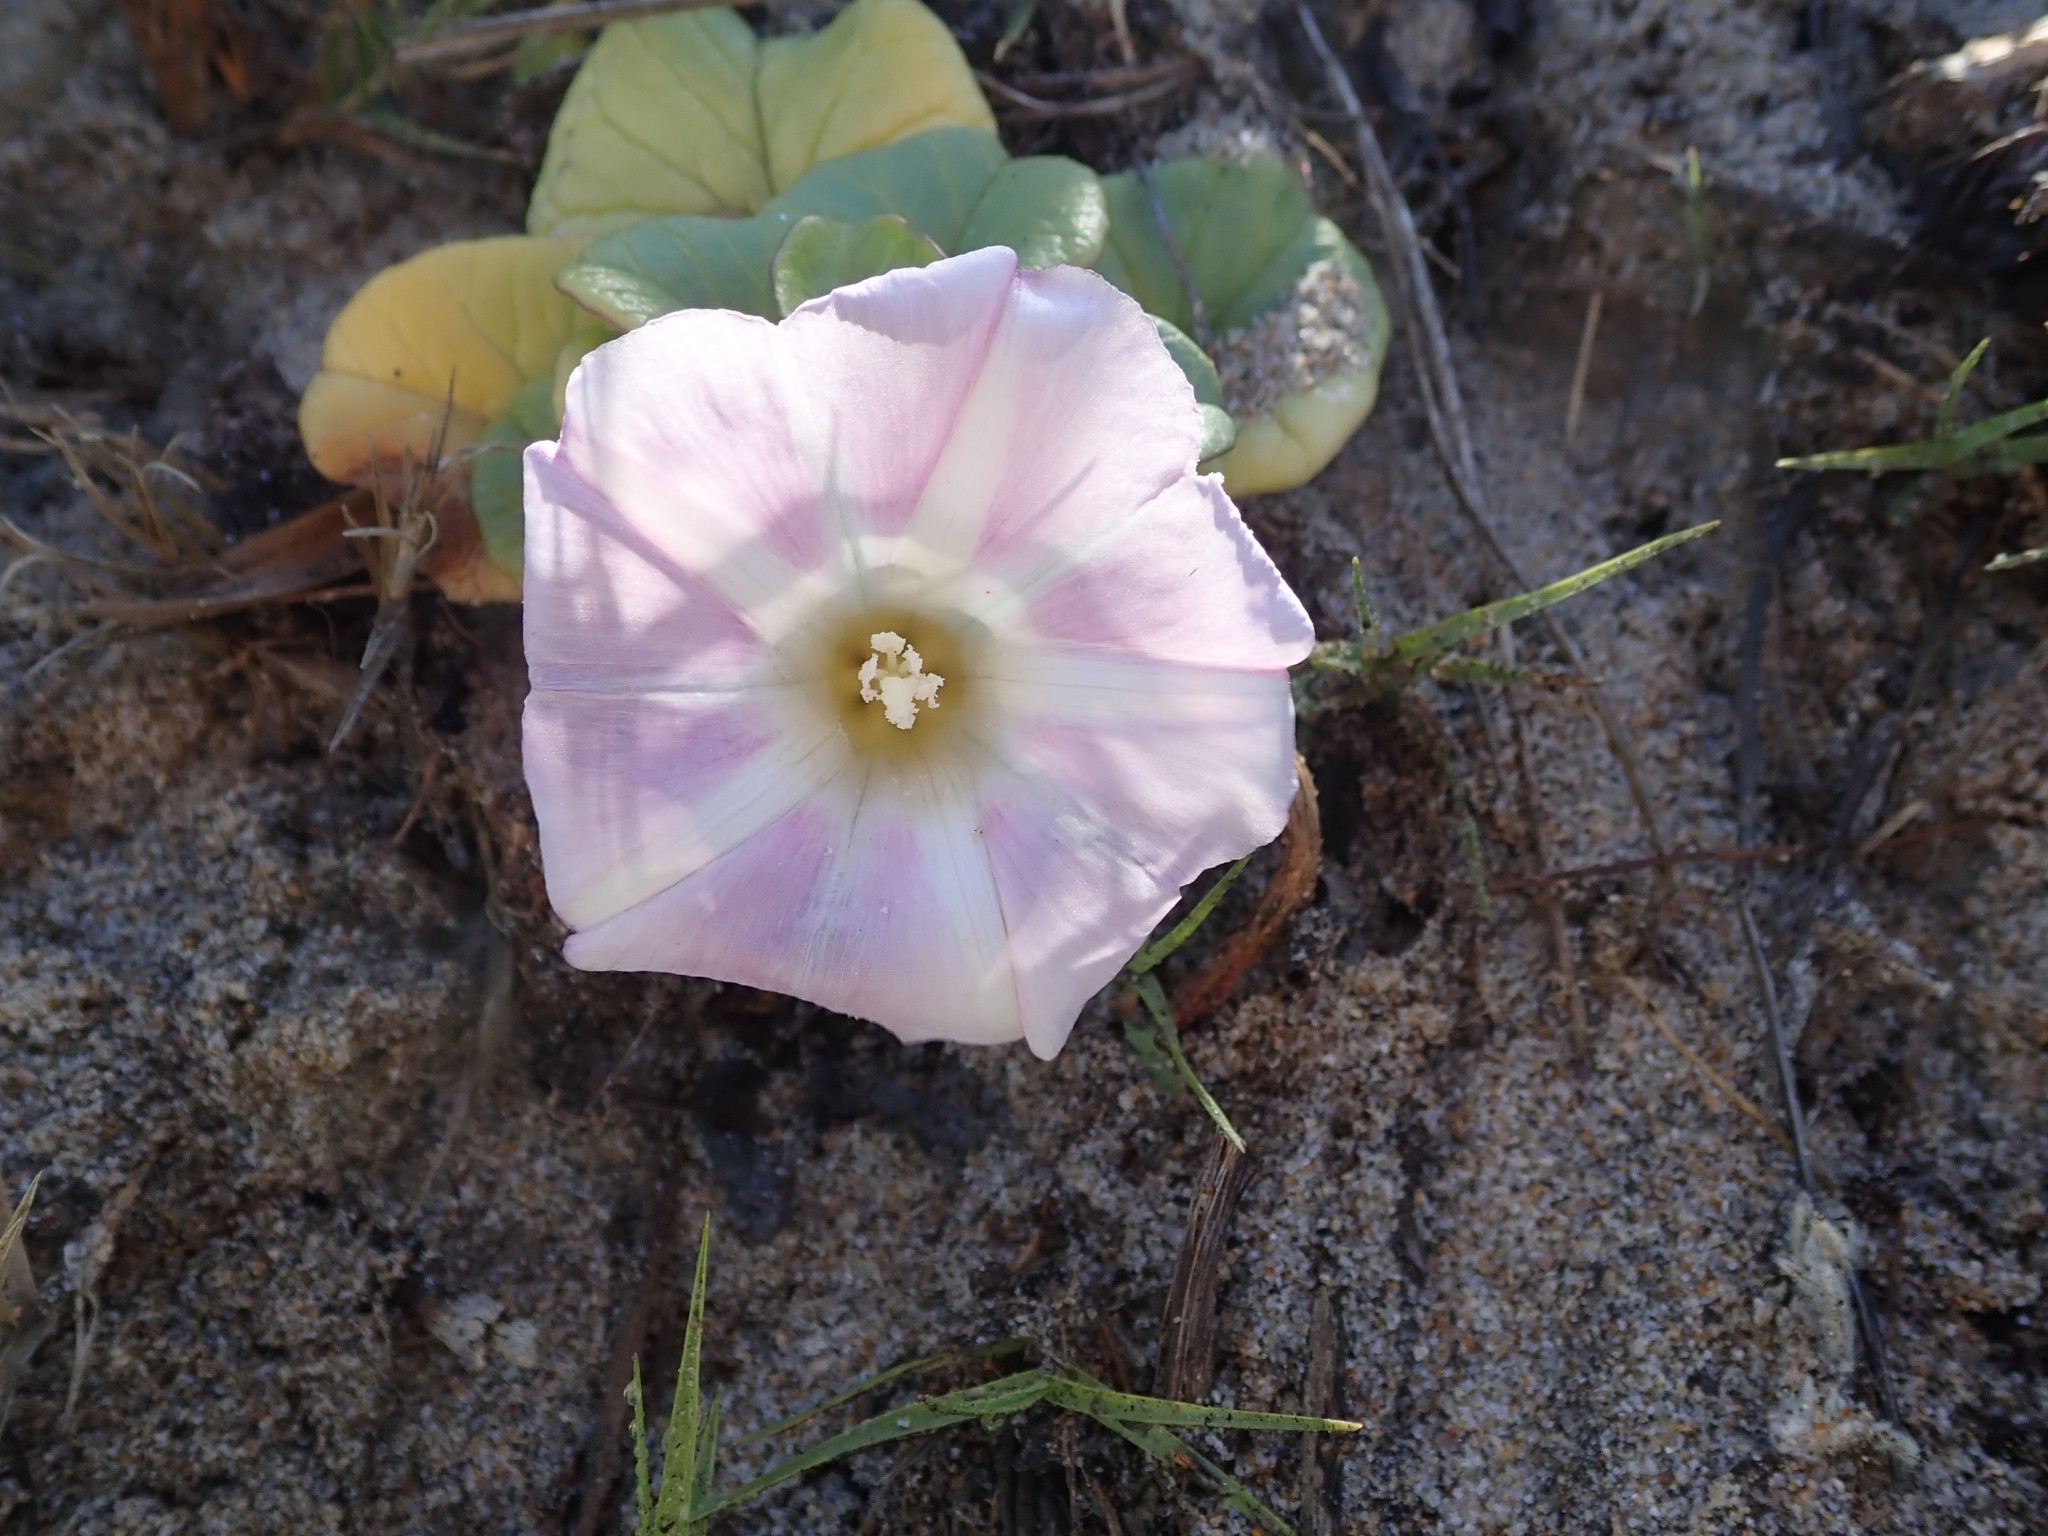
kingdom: Plantae
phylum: Tracheophyta
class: Magnoliopsida
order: Solanales
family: Convolvulaceae
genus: Calystegia
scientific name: Calystegia soldanella
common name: Sea bindweed
